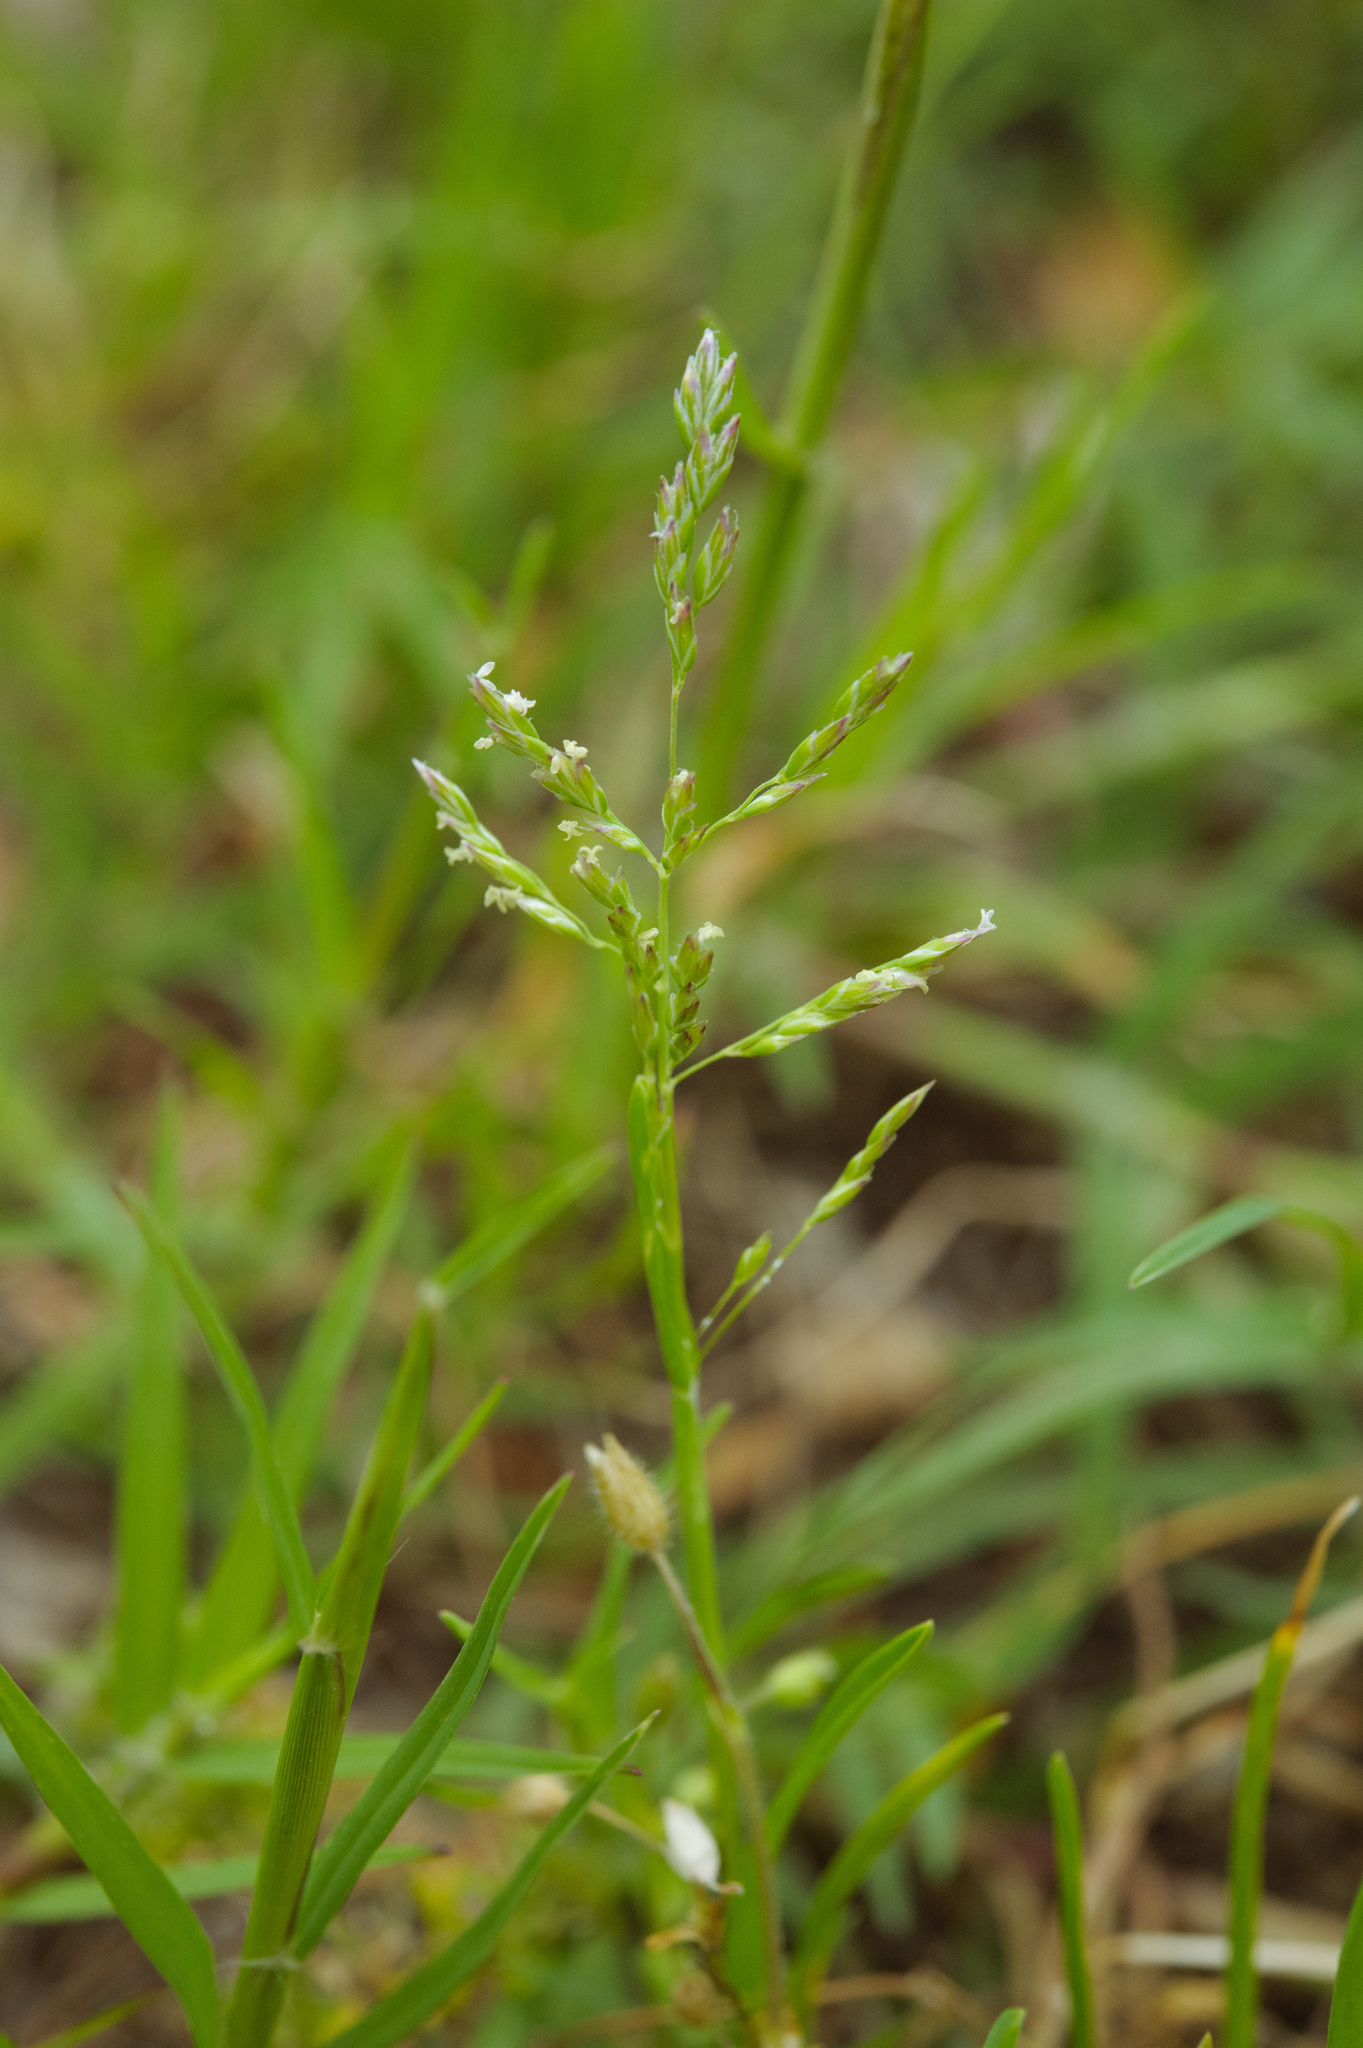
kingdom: Plantae
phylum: Tracheophyta
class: Liliopsida
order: Poales
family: Poaceae
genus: Poa
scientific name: Poa annua
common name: Annual bluegrass
